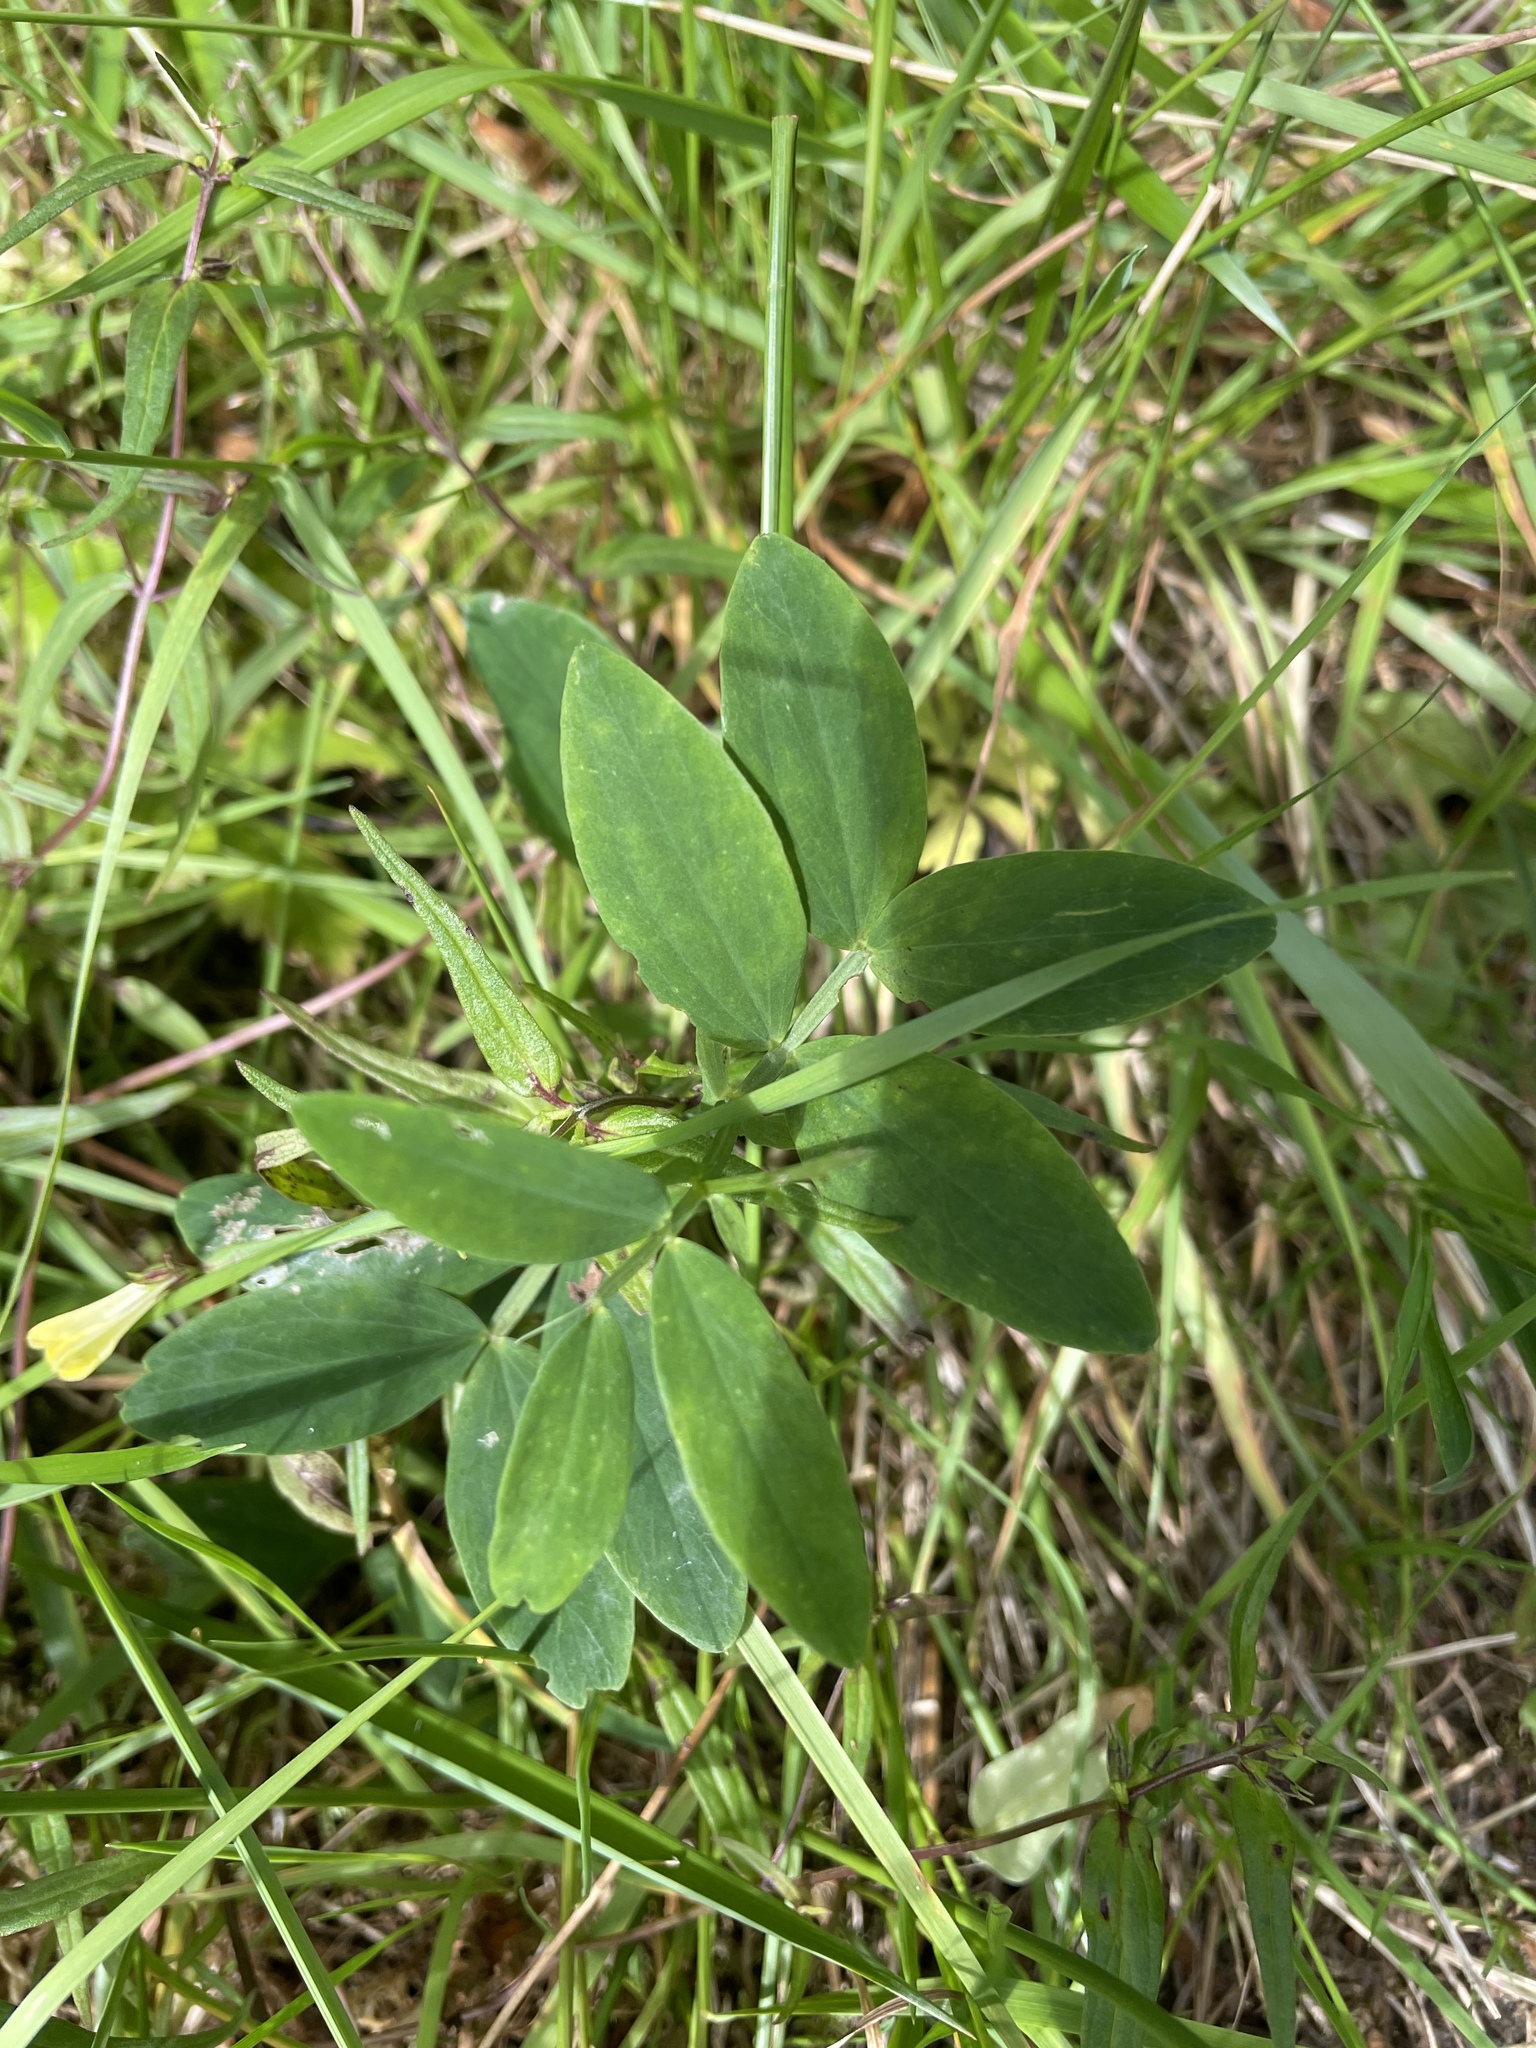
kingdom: Plantae
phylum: Tracheophyta
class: Magnoliopsida
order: Fabales
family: Fabaceae
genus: Lathyrus
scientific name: Lathyrus linifolius
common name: Bitter-vetch
